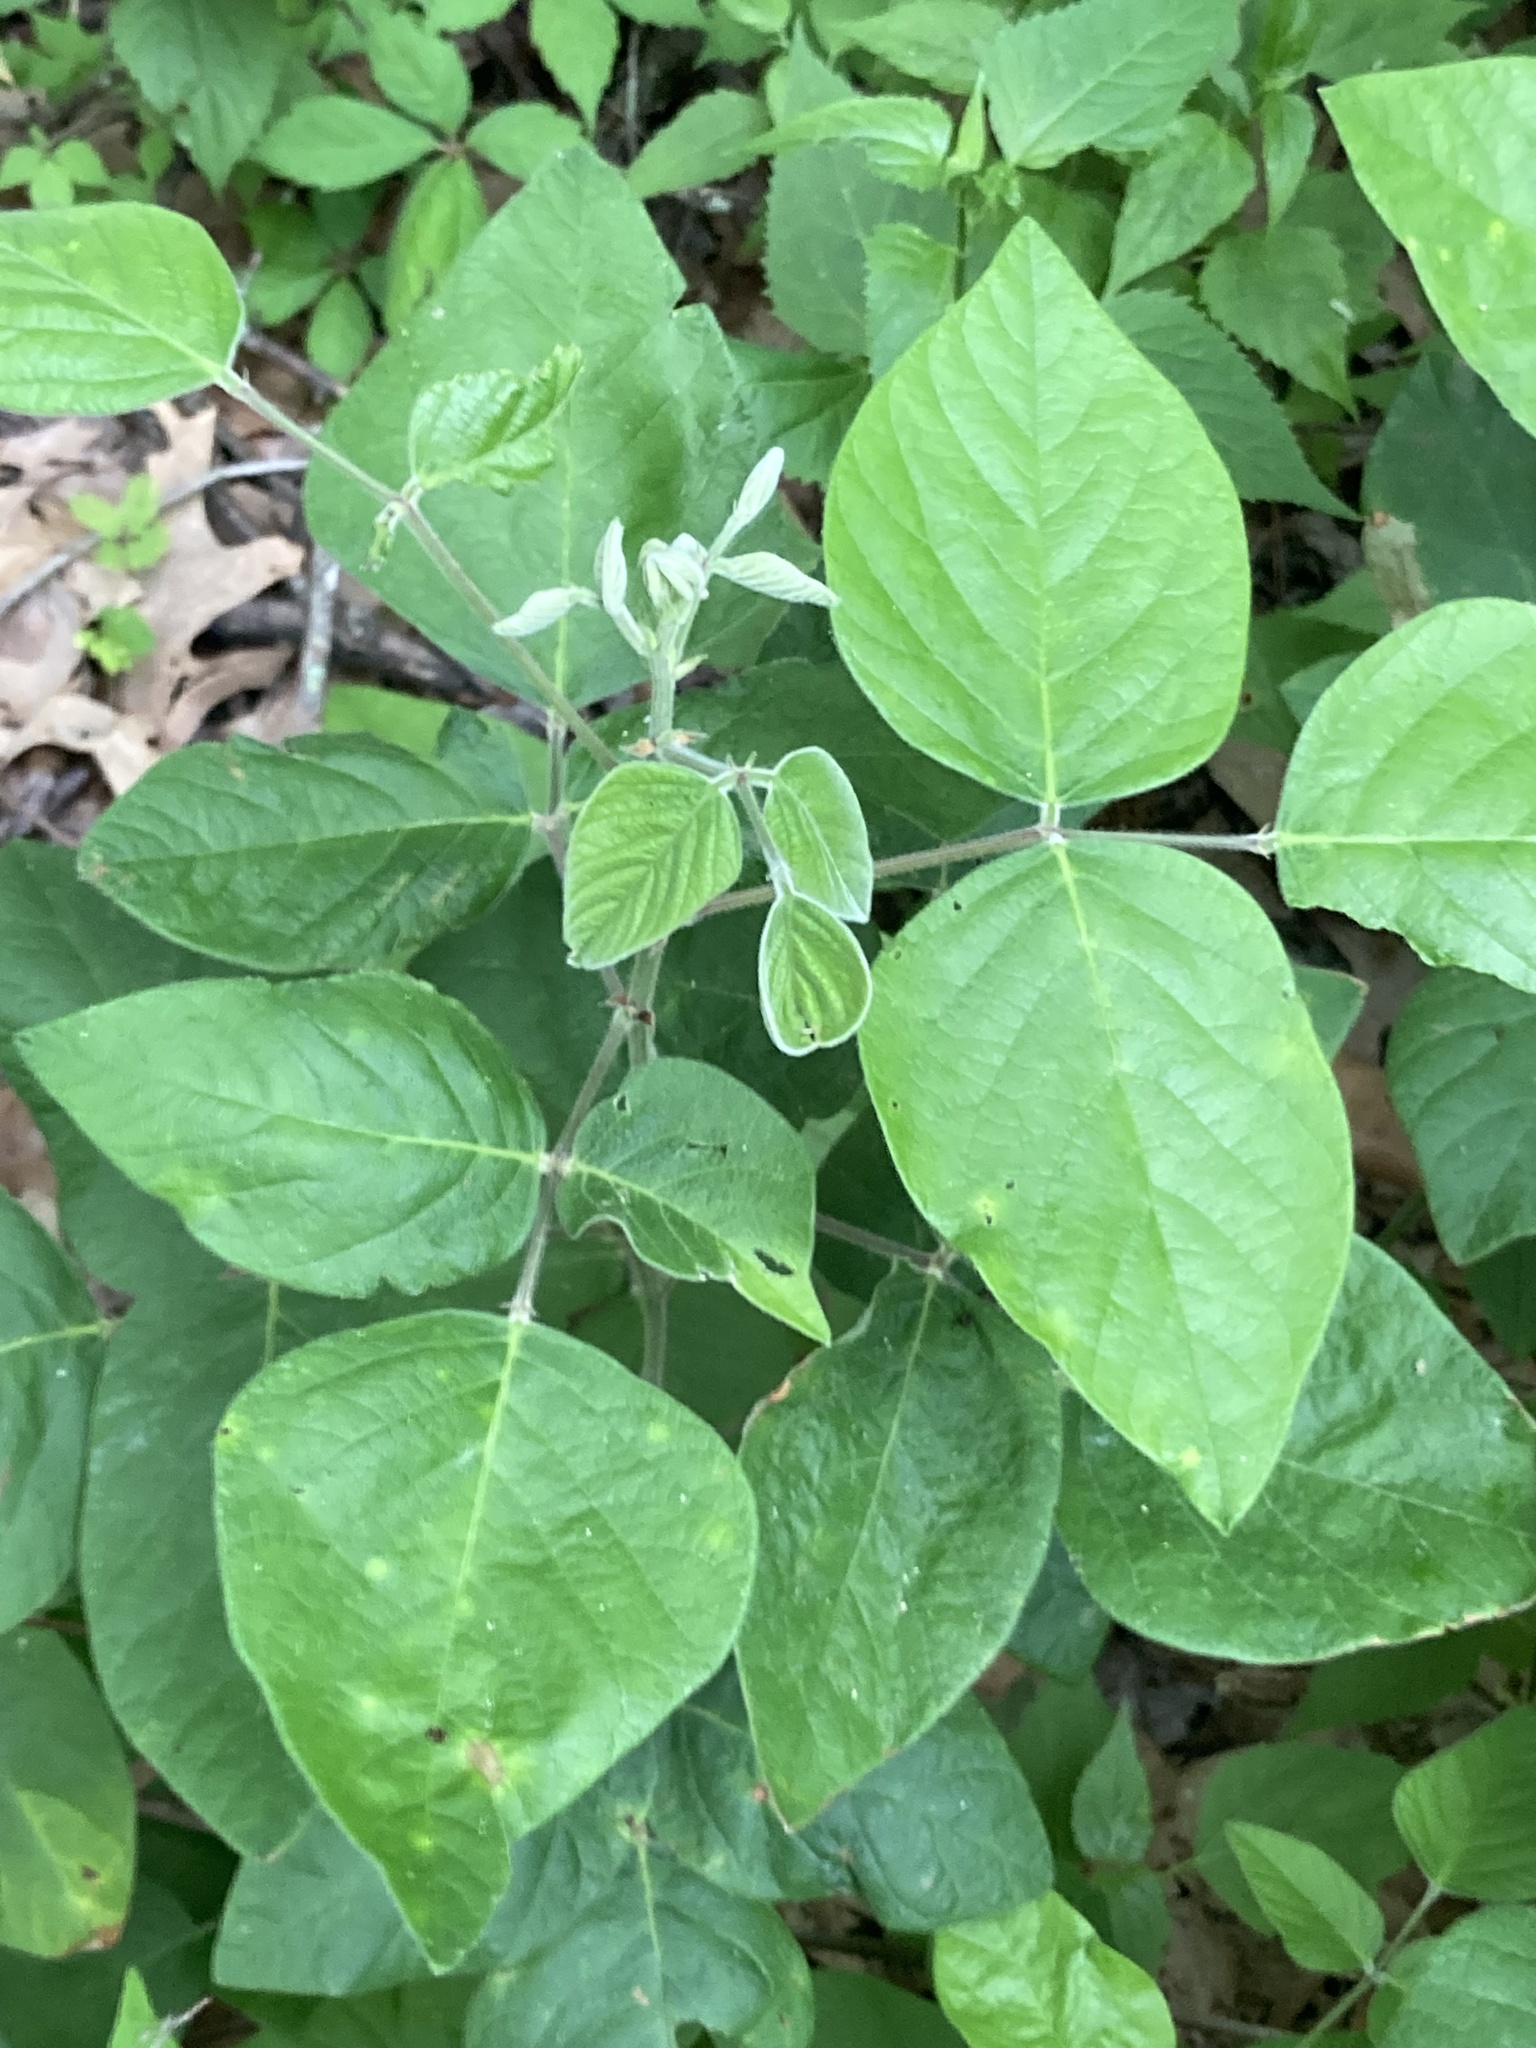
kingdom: Plantae
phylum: Tracheophyta
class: Magnoliopsida
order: Fabales
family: Fabaceae
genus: Desmodium
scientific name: Desmodium viridiflorum
